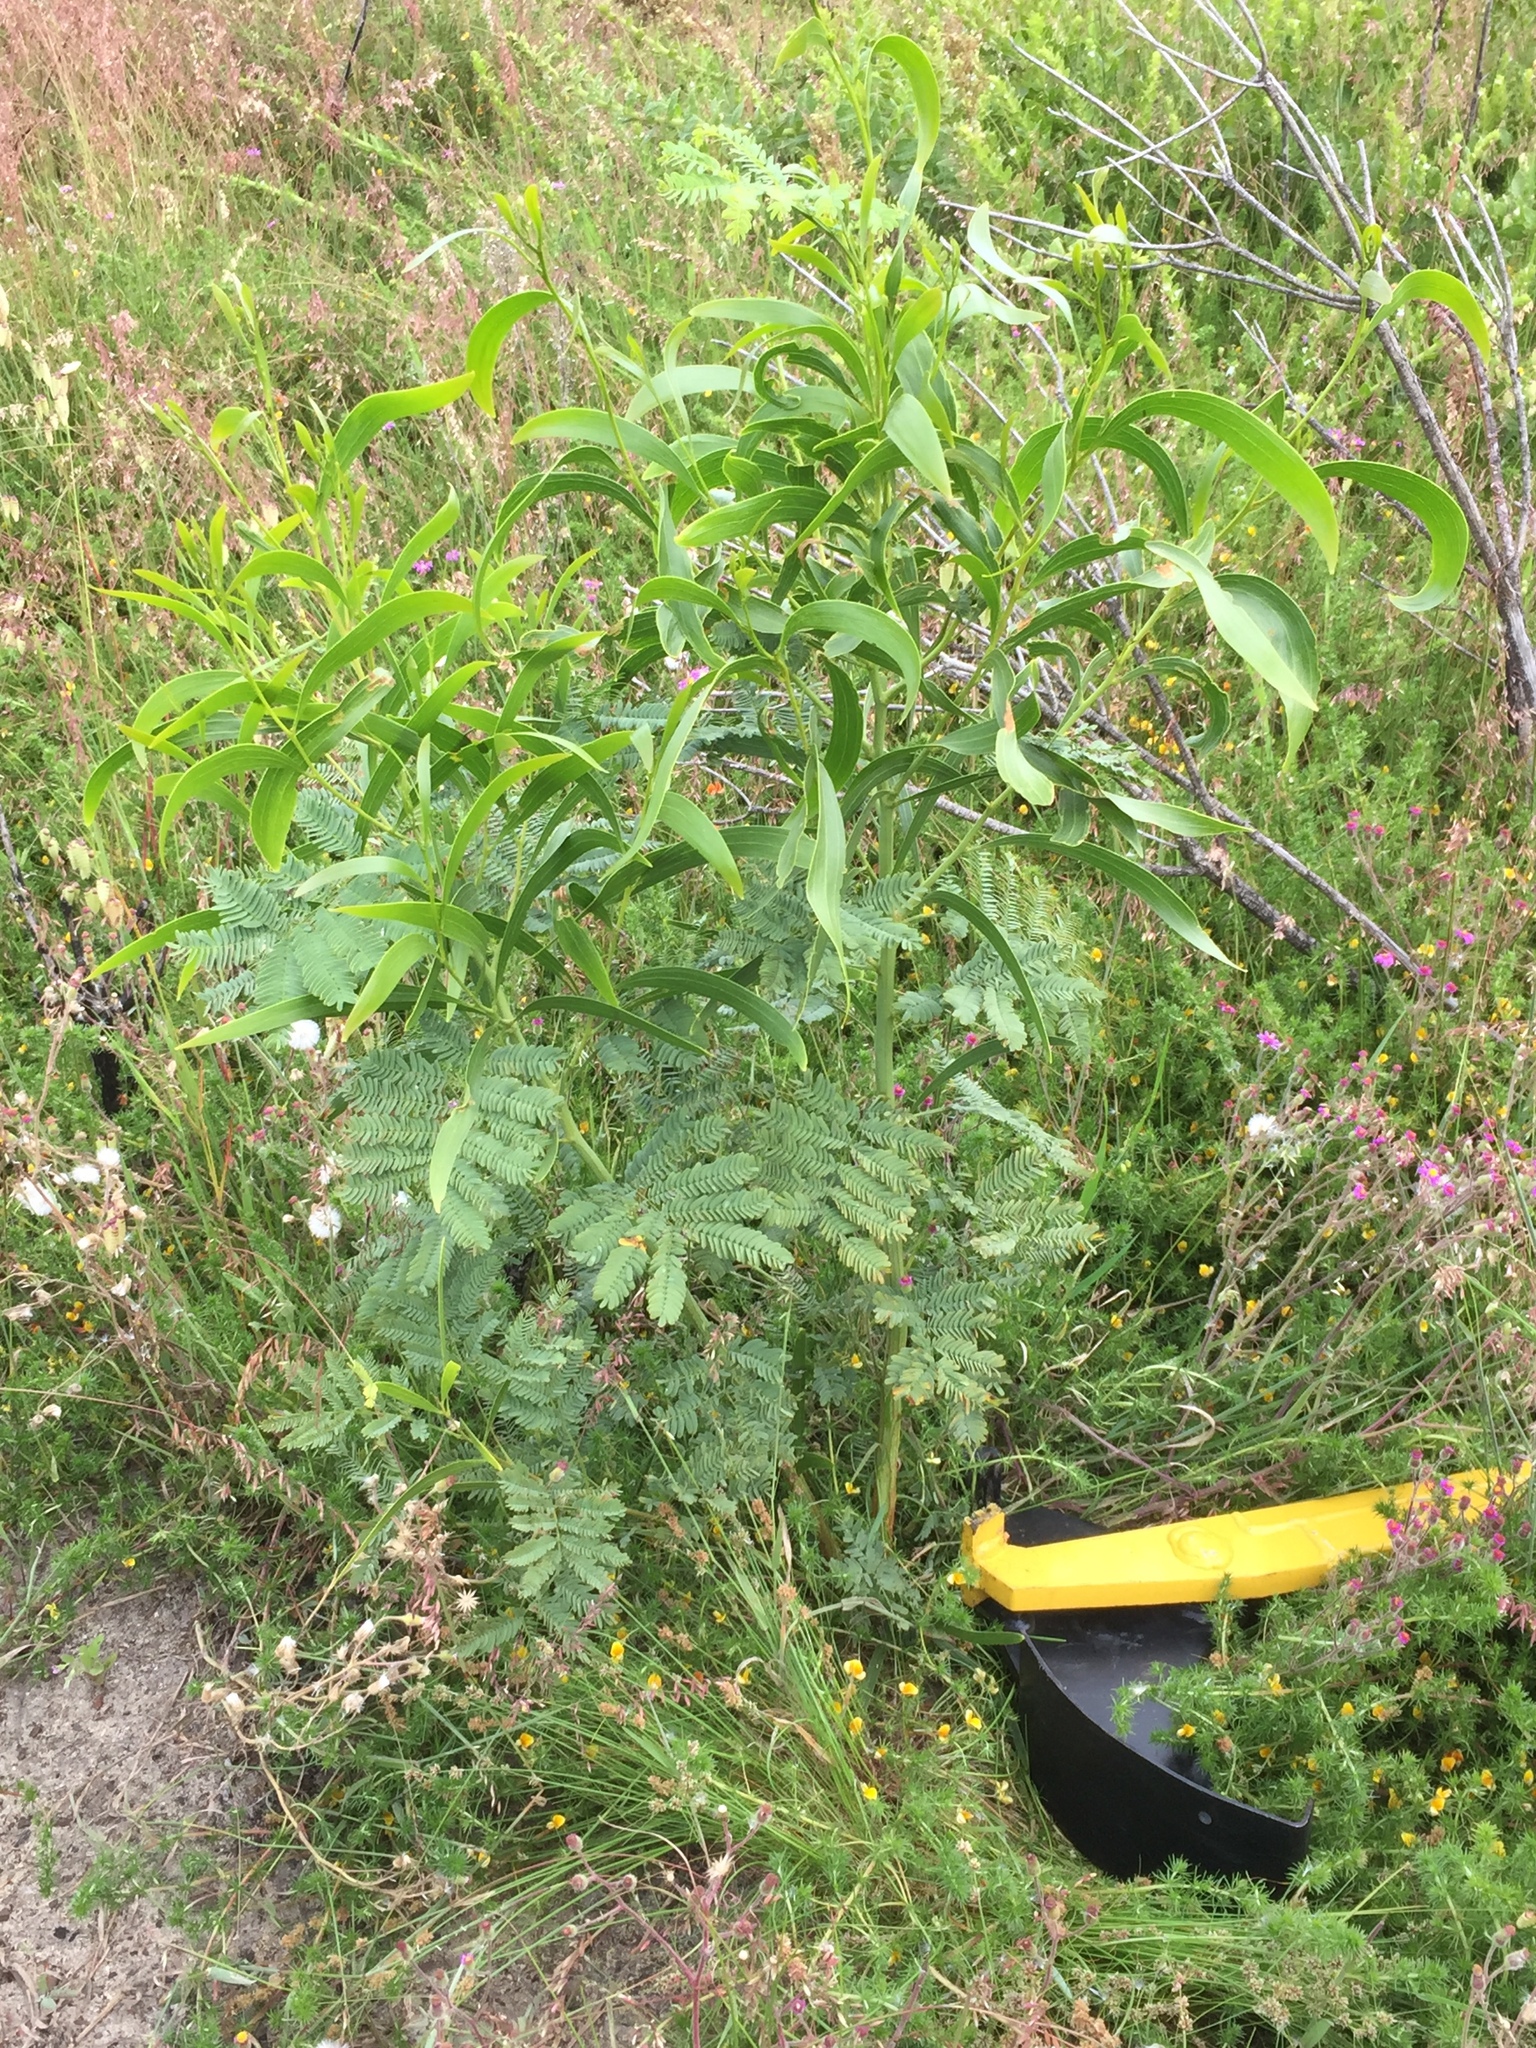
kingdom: Plantae
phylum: Tracheophyta
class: Magnoliopsida
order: Fabales
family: Fabaceae
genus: Acacia
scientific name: Acacia implexa
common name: Black wattle
